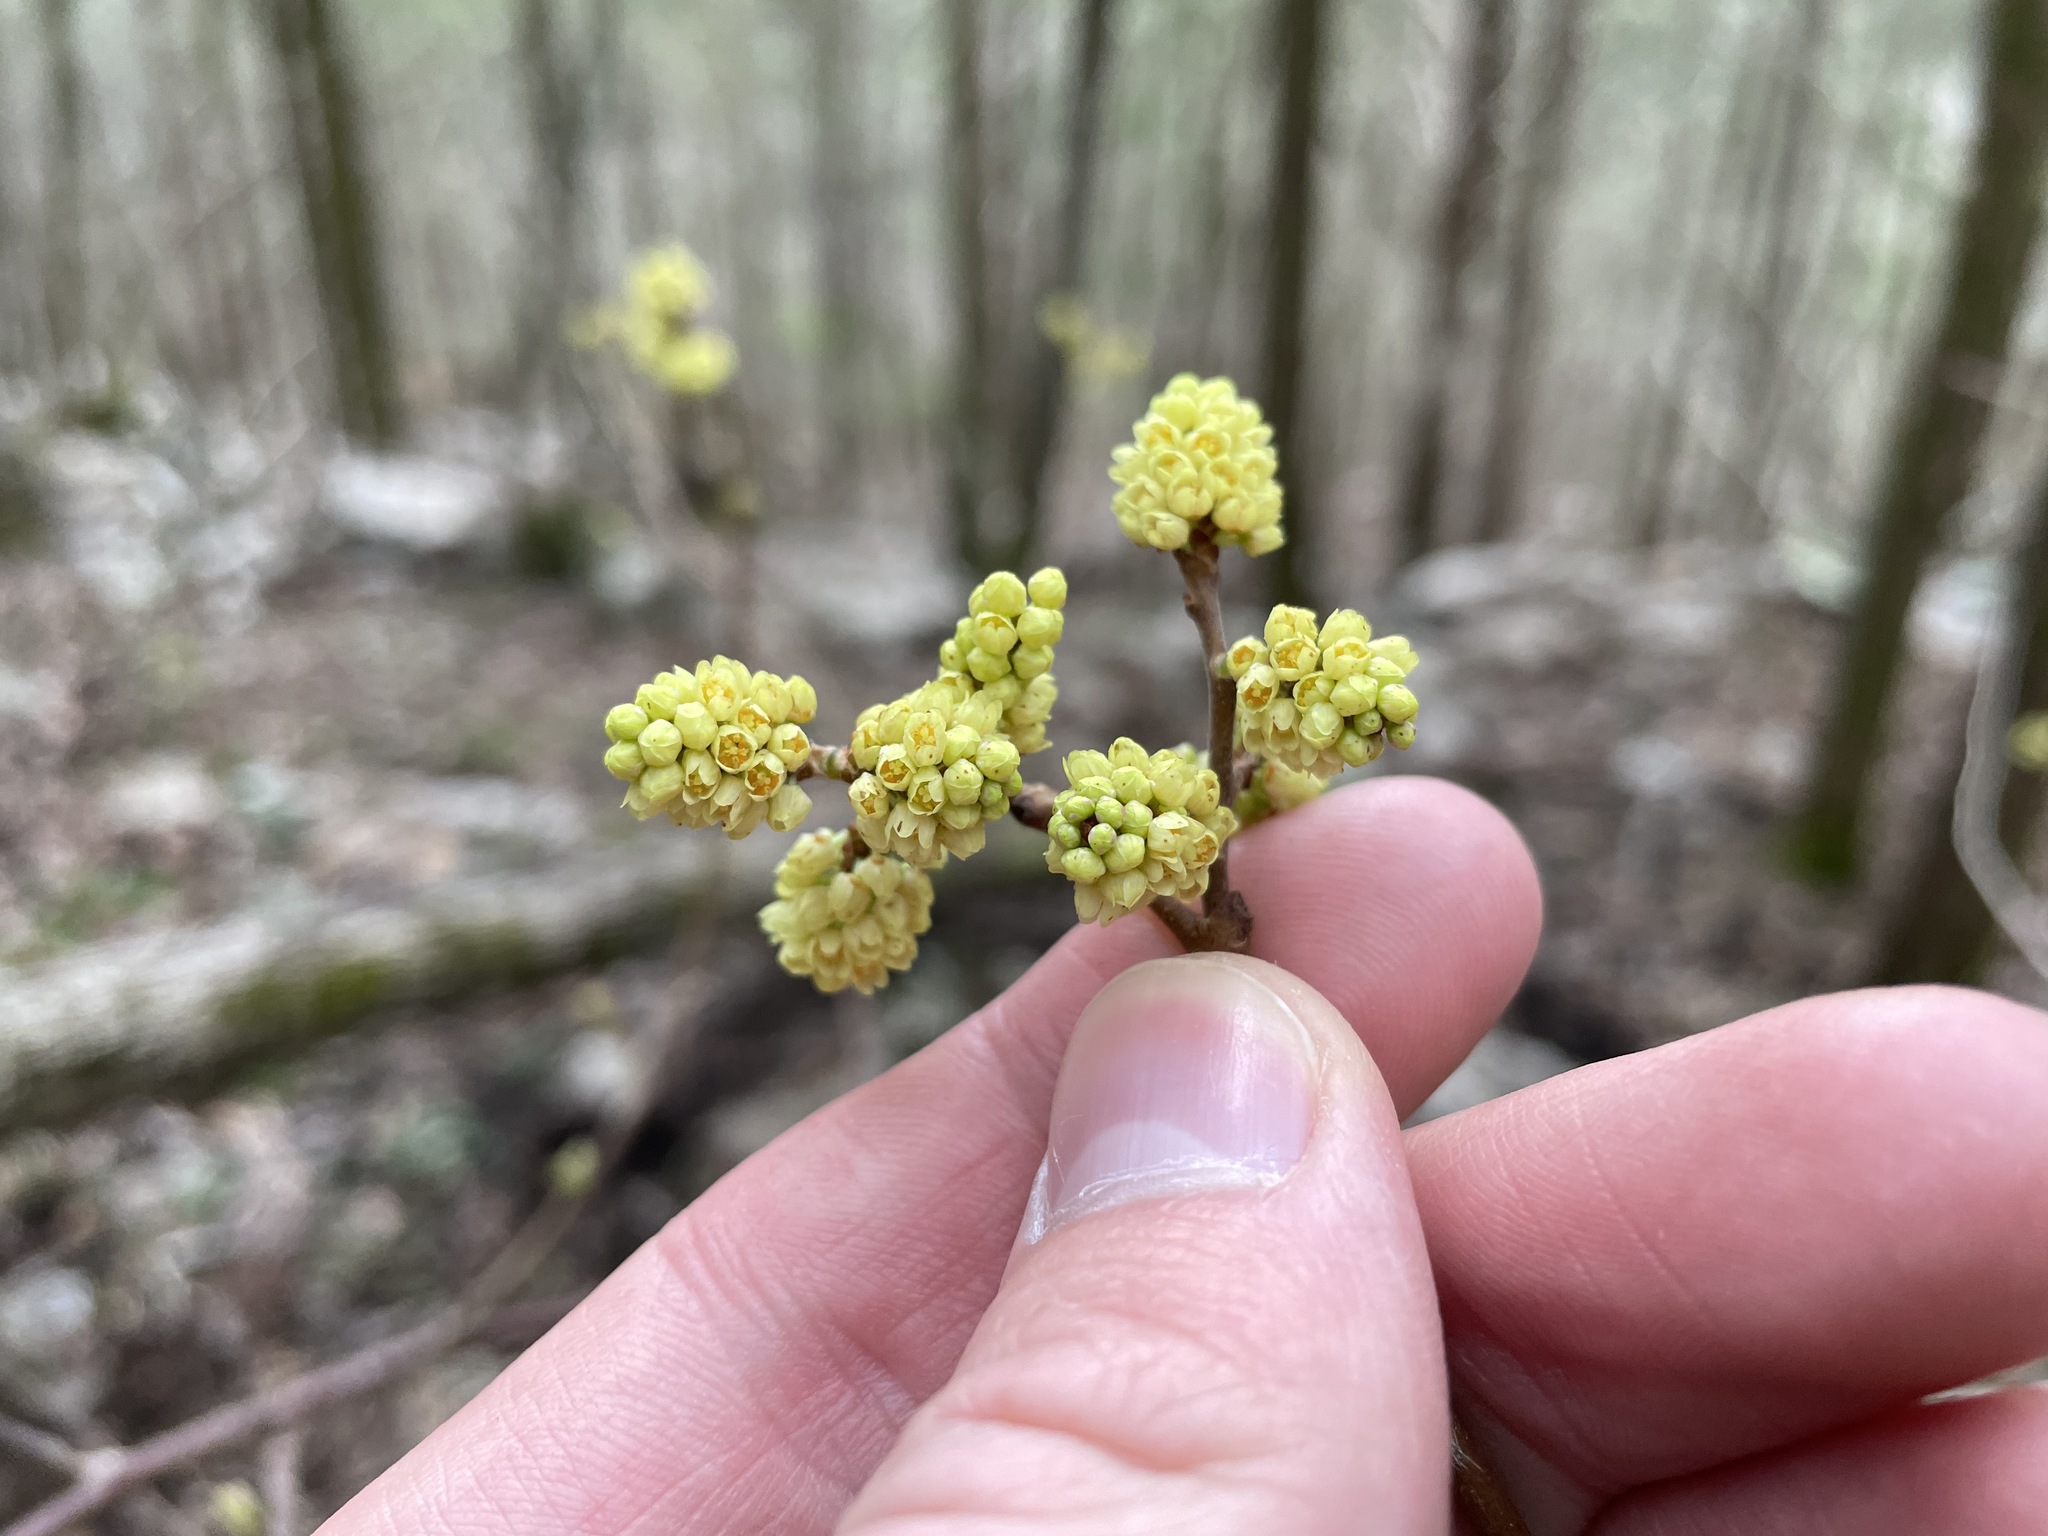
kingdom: Plantae
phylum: Tracheophyta
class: Magnoliopsida
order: Sapindales
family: Anacardiaceae
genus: Rhus
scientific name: Rhus aromatica
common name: Aromatic sumac
